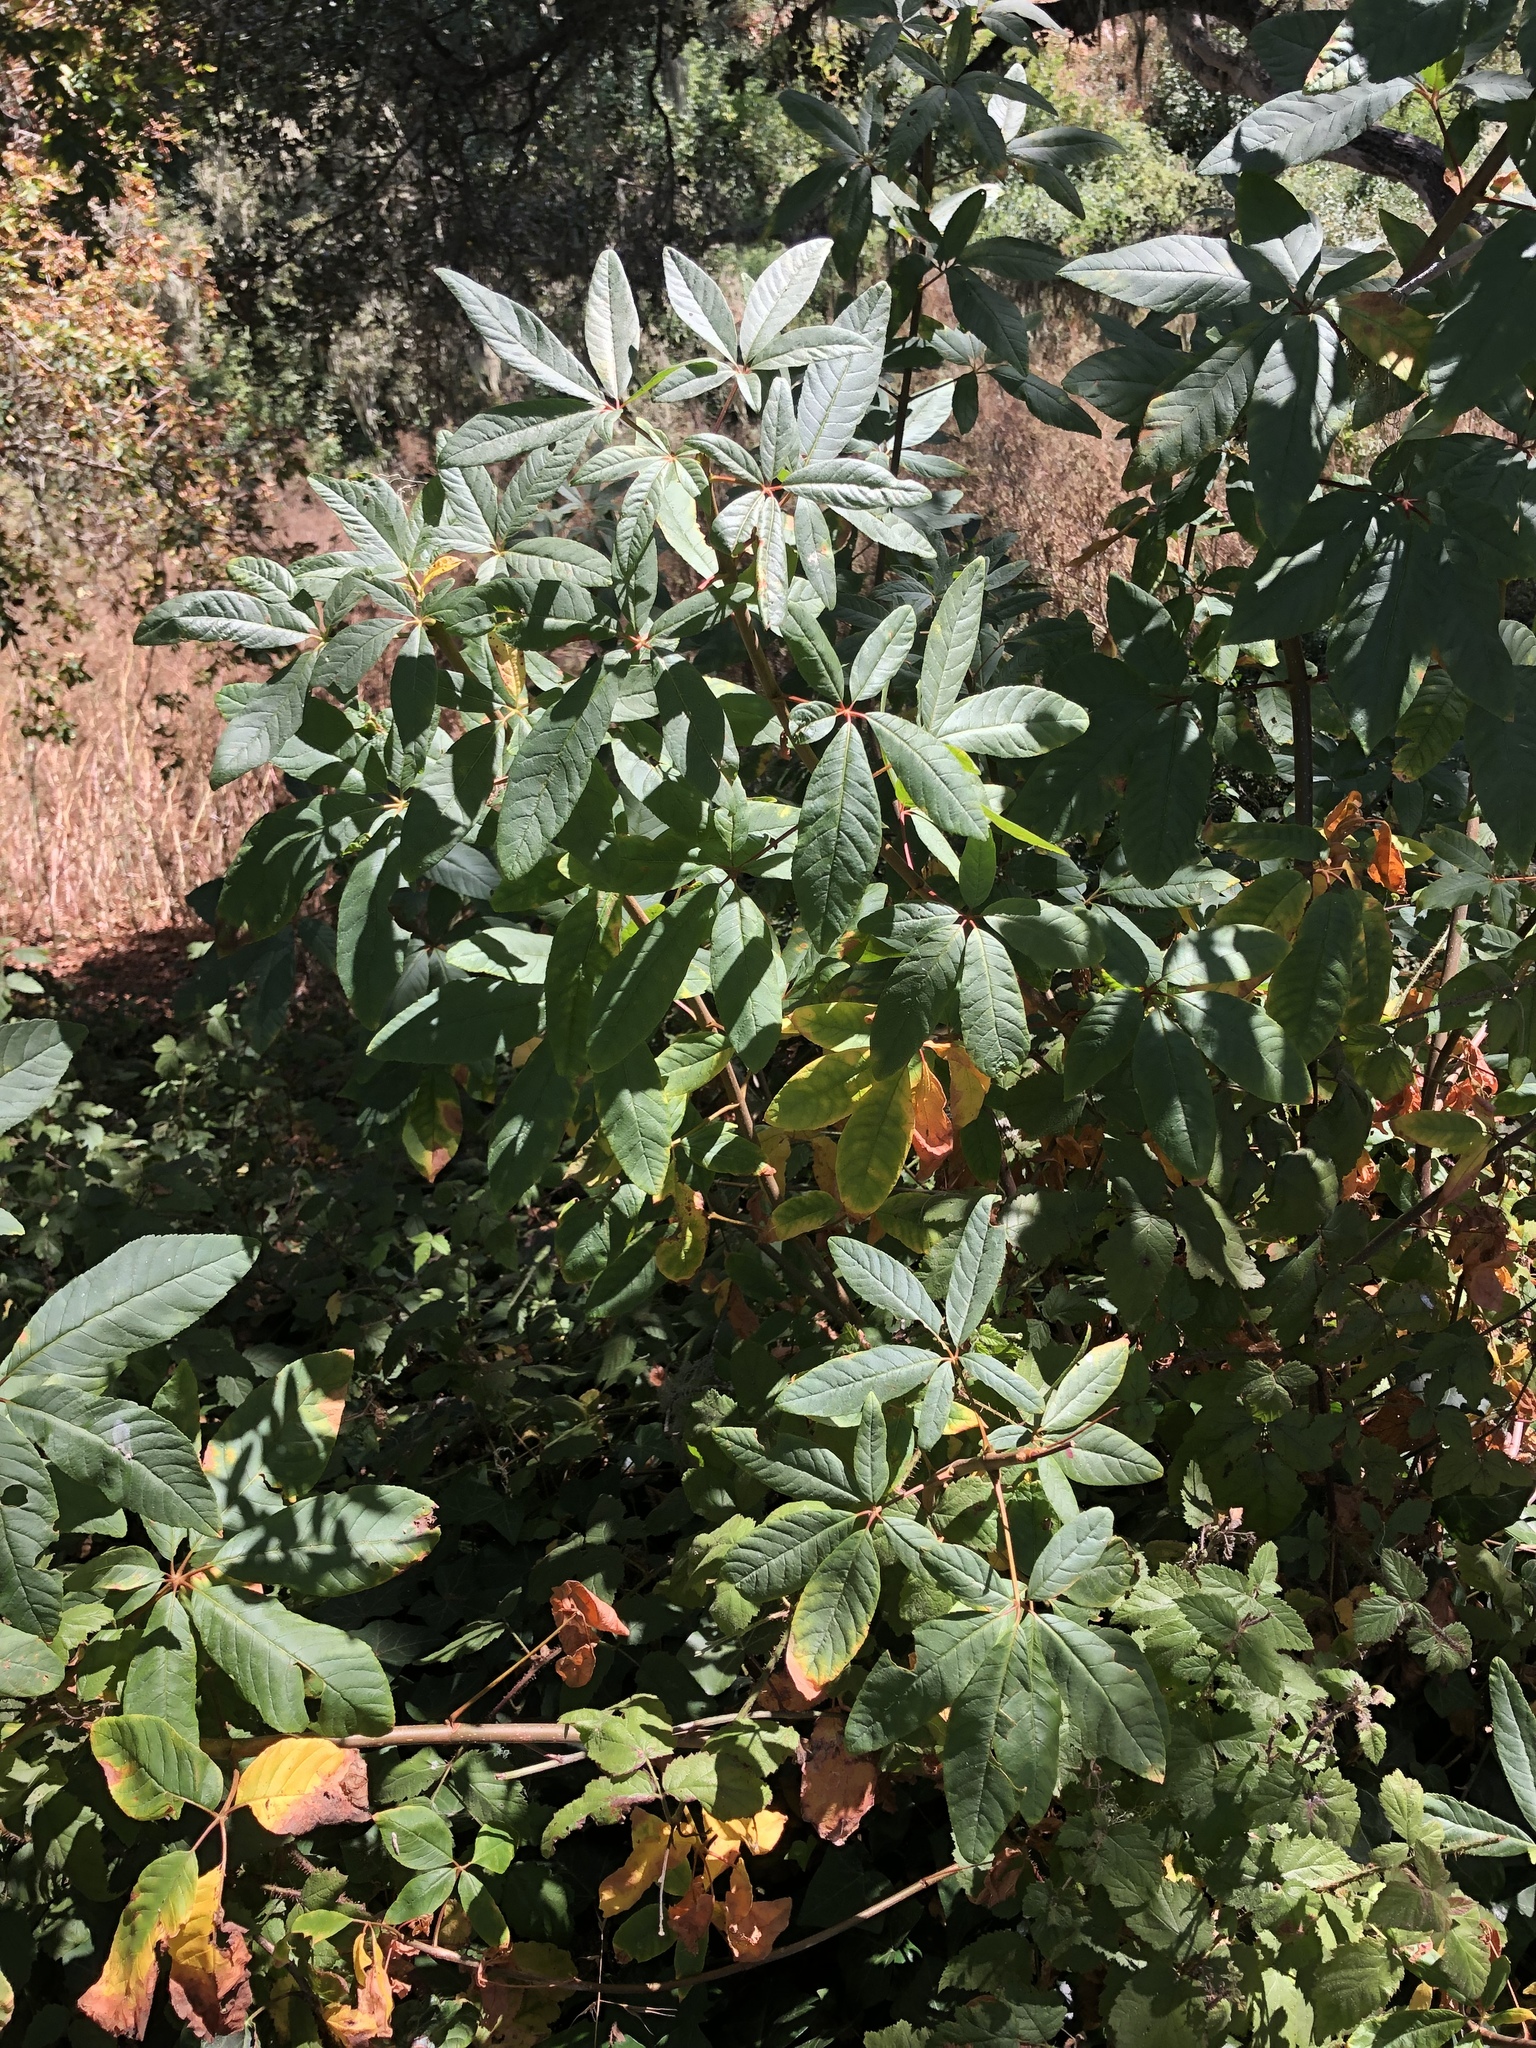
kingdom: Plantae
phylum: Tracheophyta
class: Magnoliopsida
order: Sapindales
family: Sapindaceae
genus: Aesculus
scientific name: Aesculus californica
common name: California buckeye
